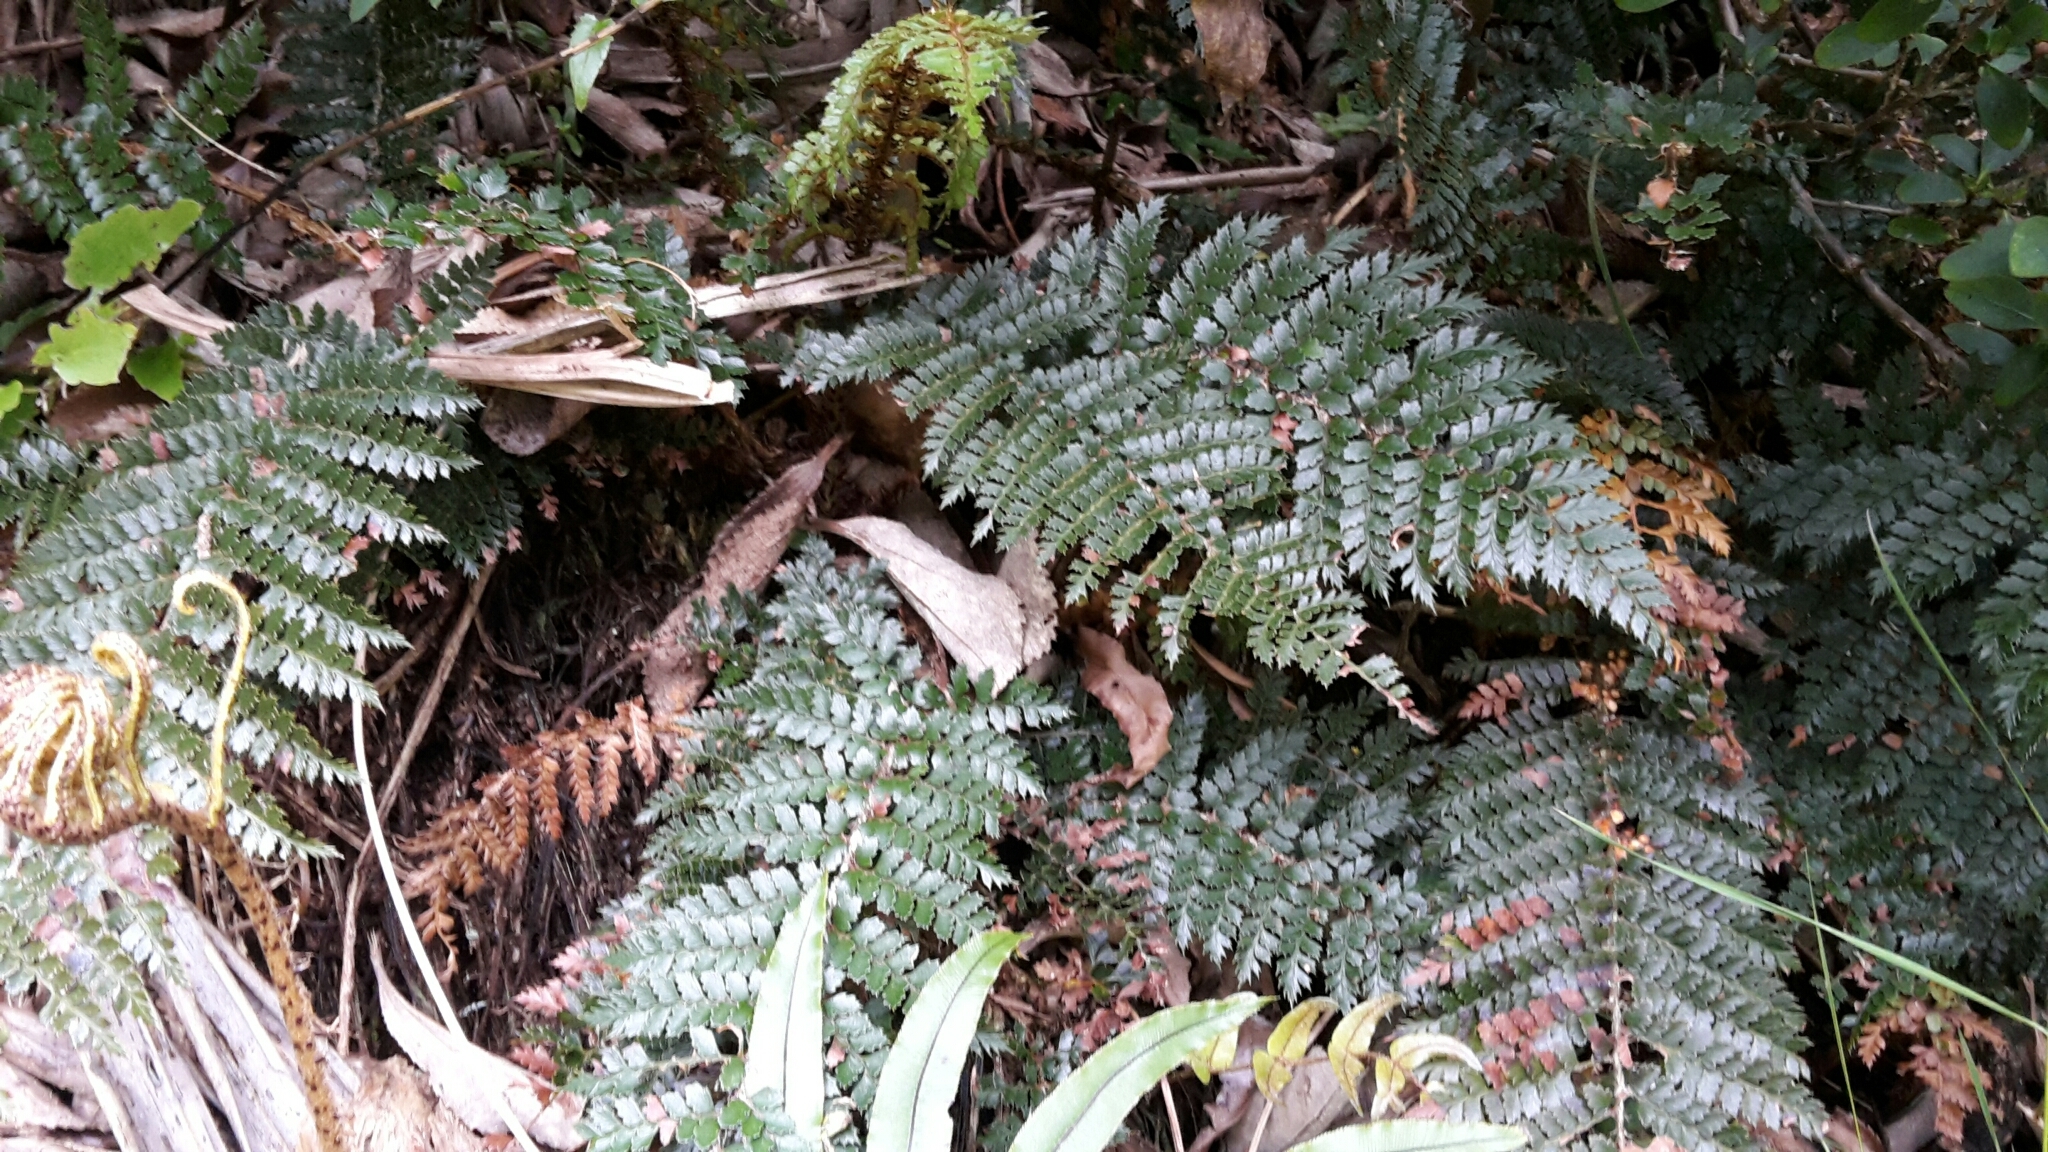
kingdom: Plantae
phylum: Tracheophyta
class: Polypodiopsida
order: Polypodiales
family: Dryopteridaceae
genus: Polystichum
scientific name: Polystichum vestitum
